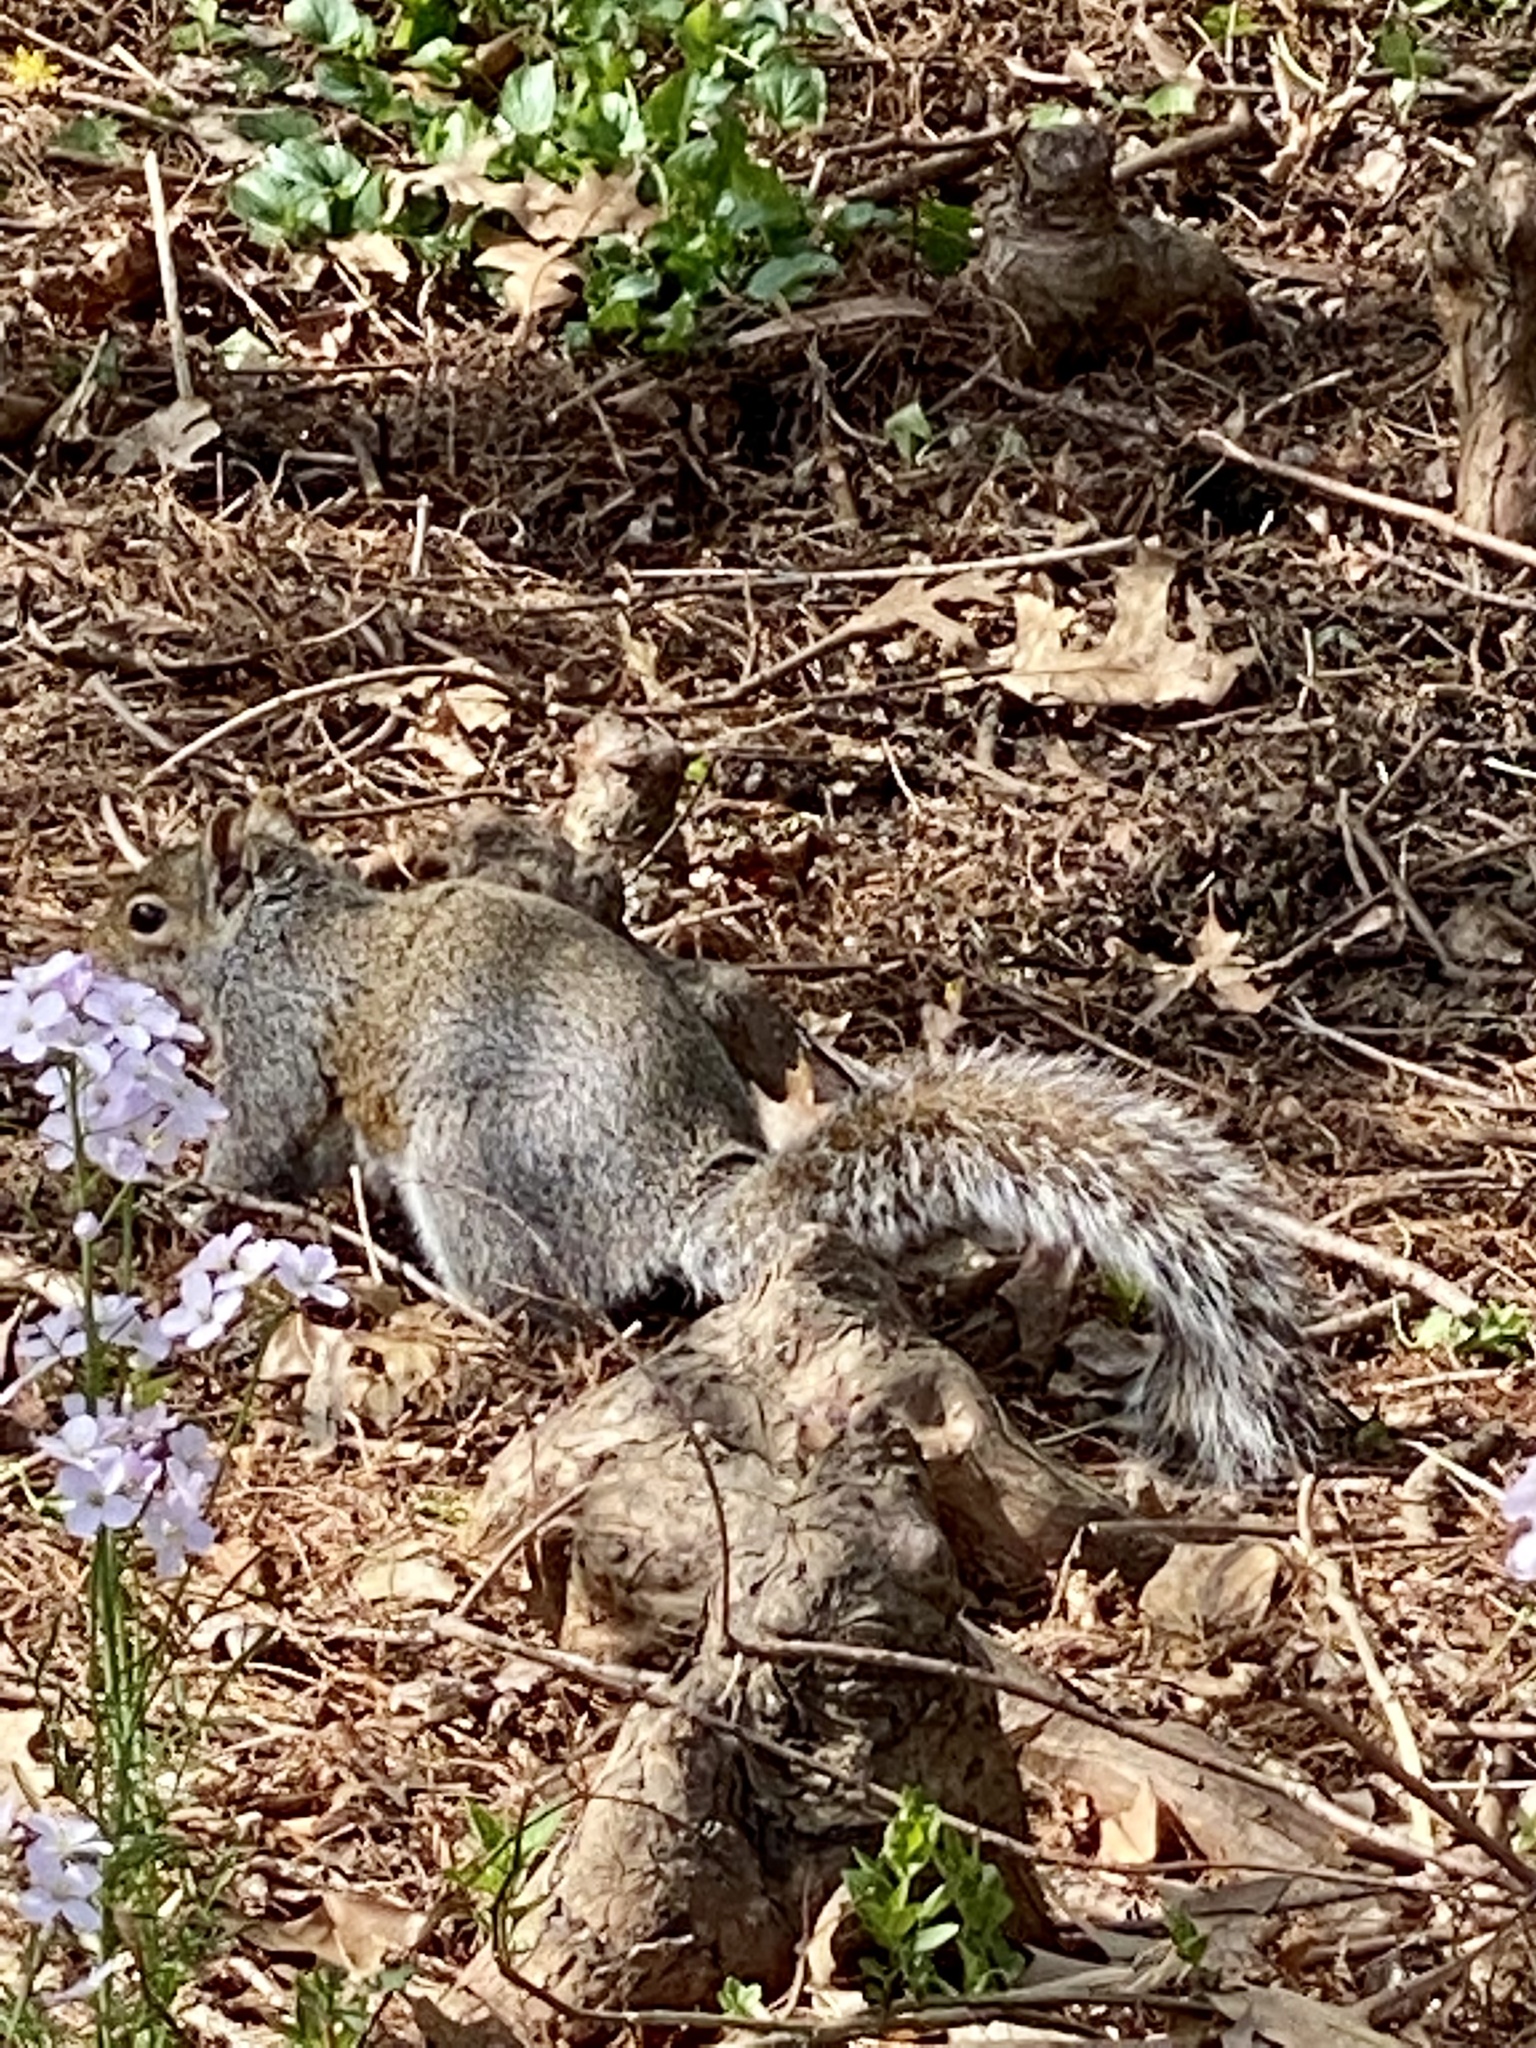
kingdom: Animalia
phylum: Chordata
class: Mammalia
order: Rodentia
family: Sciuridae
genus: Sciurus
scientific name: Sciurus carolinensis
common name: Eastern gray squirrel
